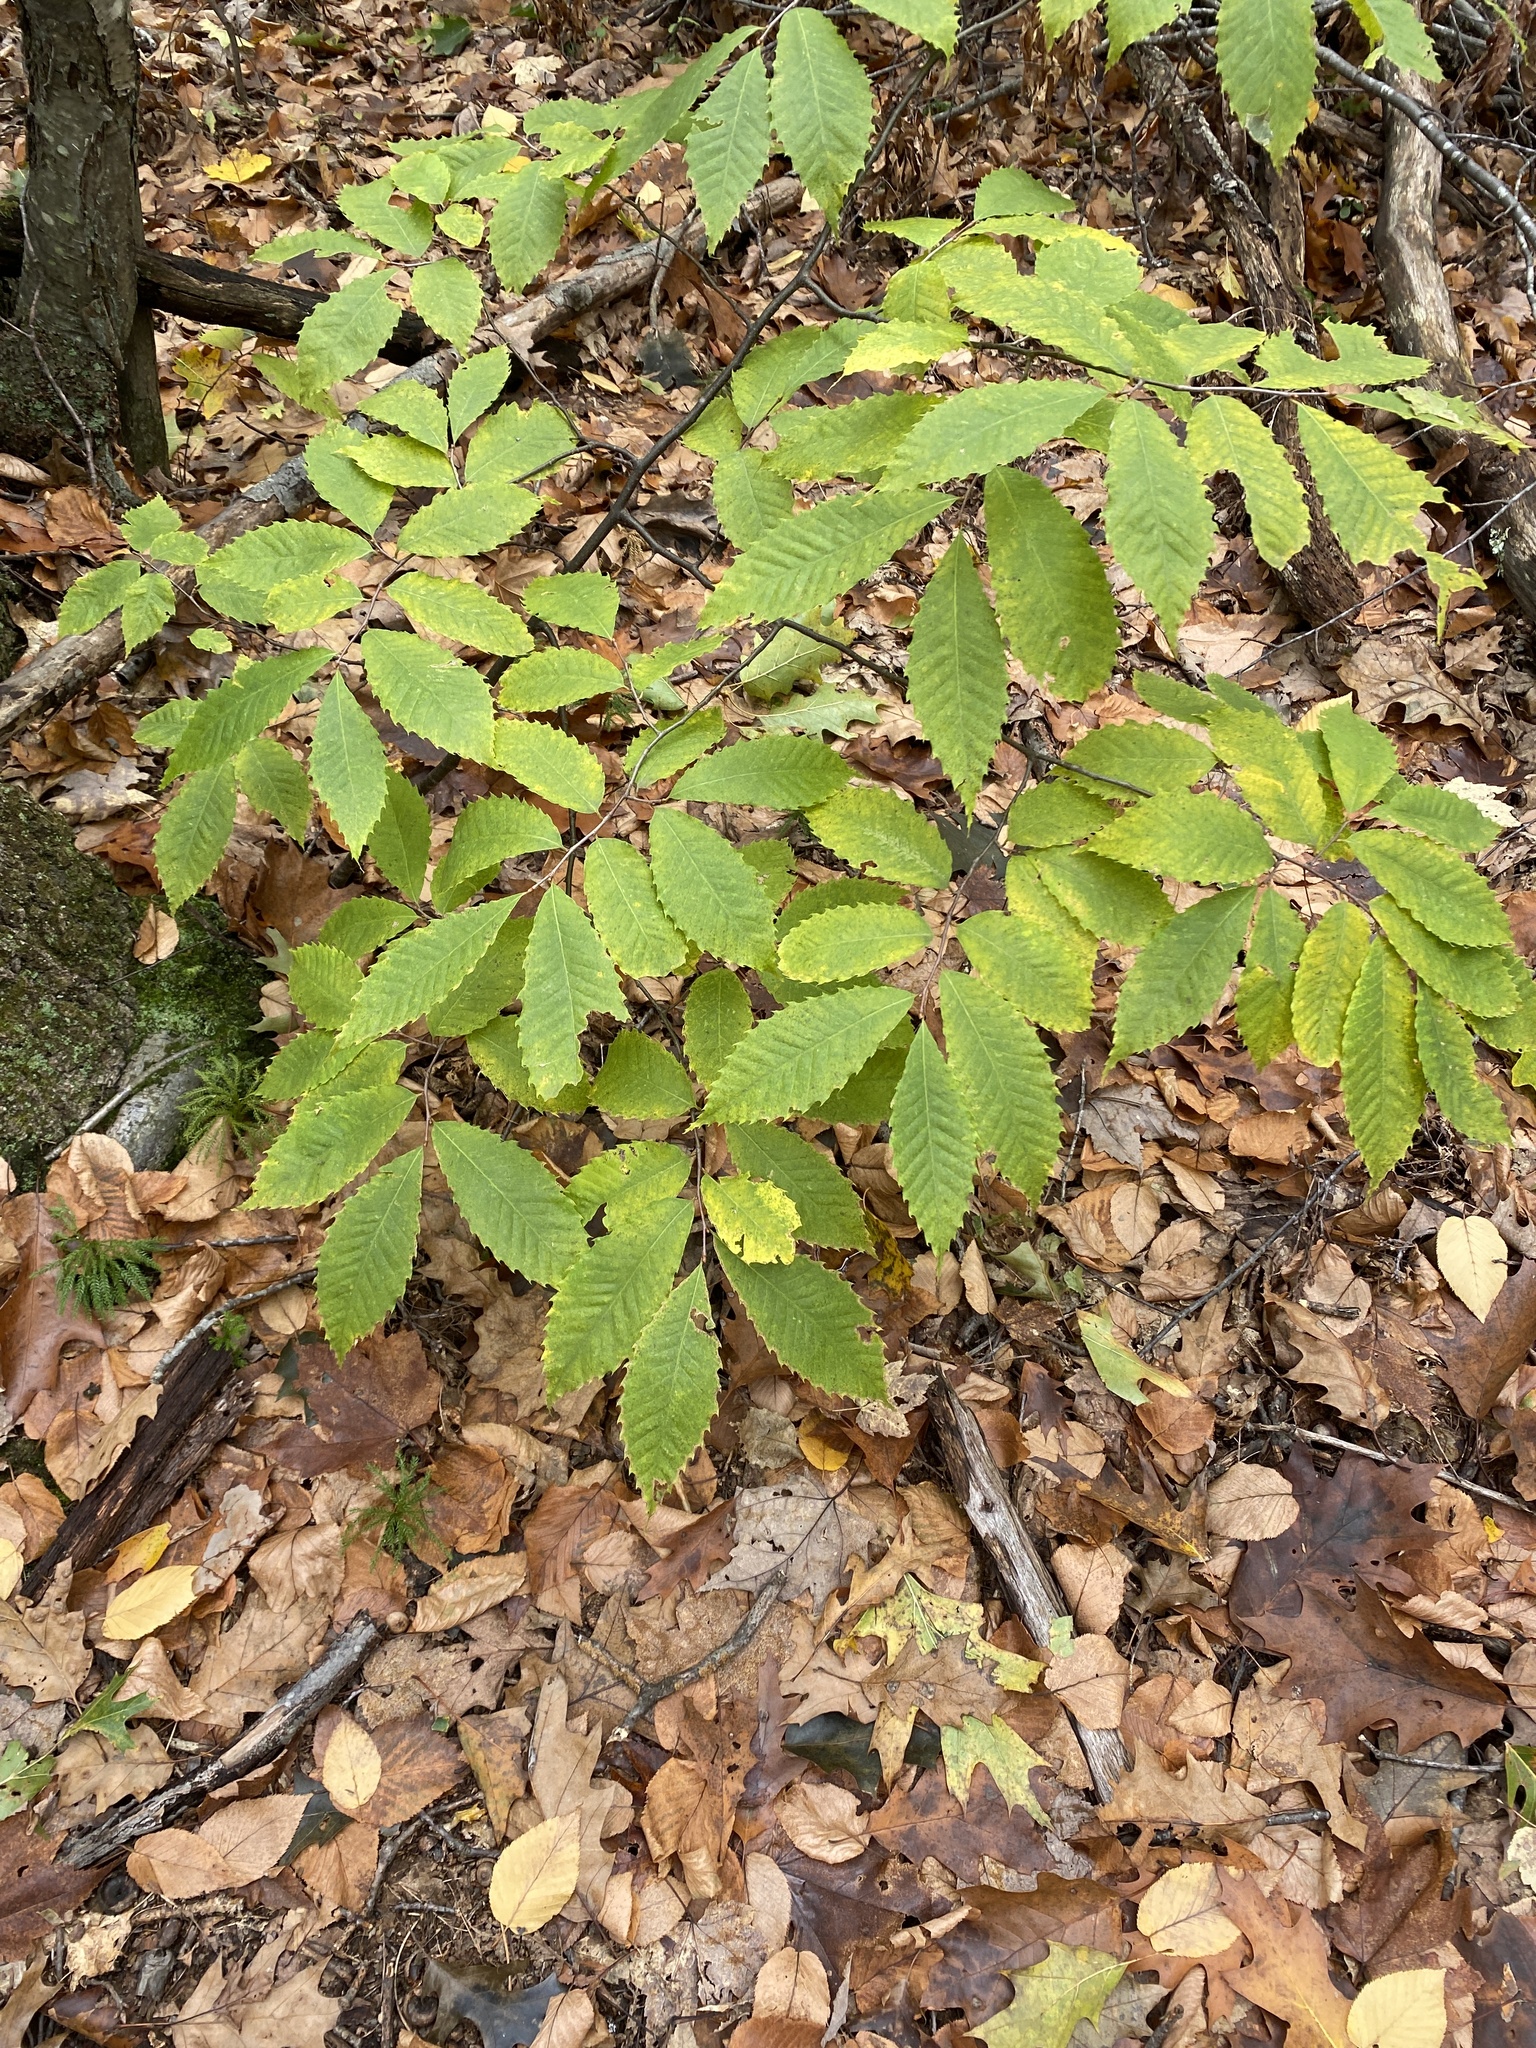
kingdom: Plantae
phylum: Tracheophyta
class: Magnoliopsida
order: Fagales
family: Fagaceae
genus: Castanea
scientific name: Castanea dentata
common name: American chestnut
